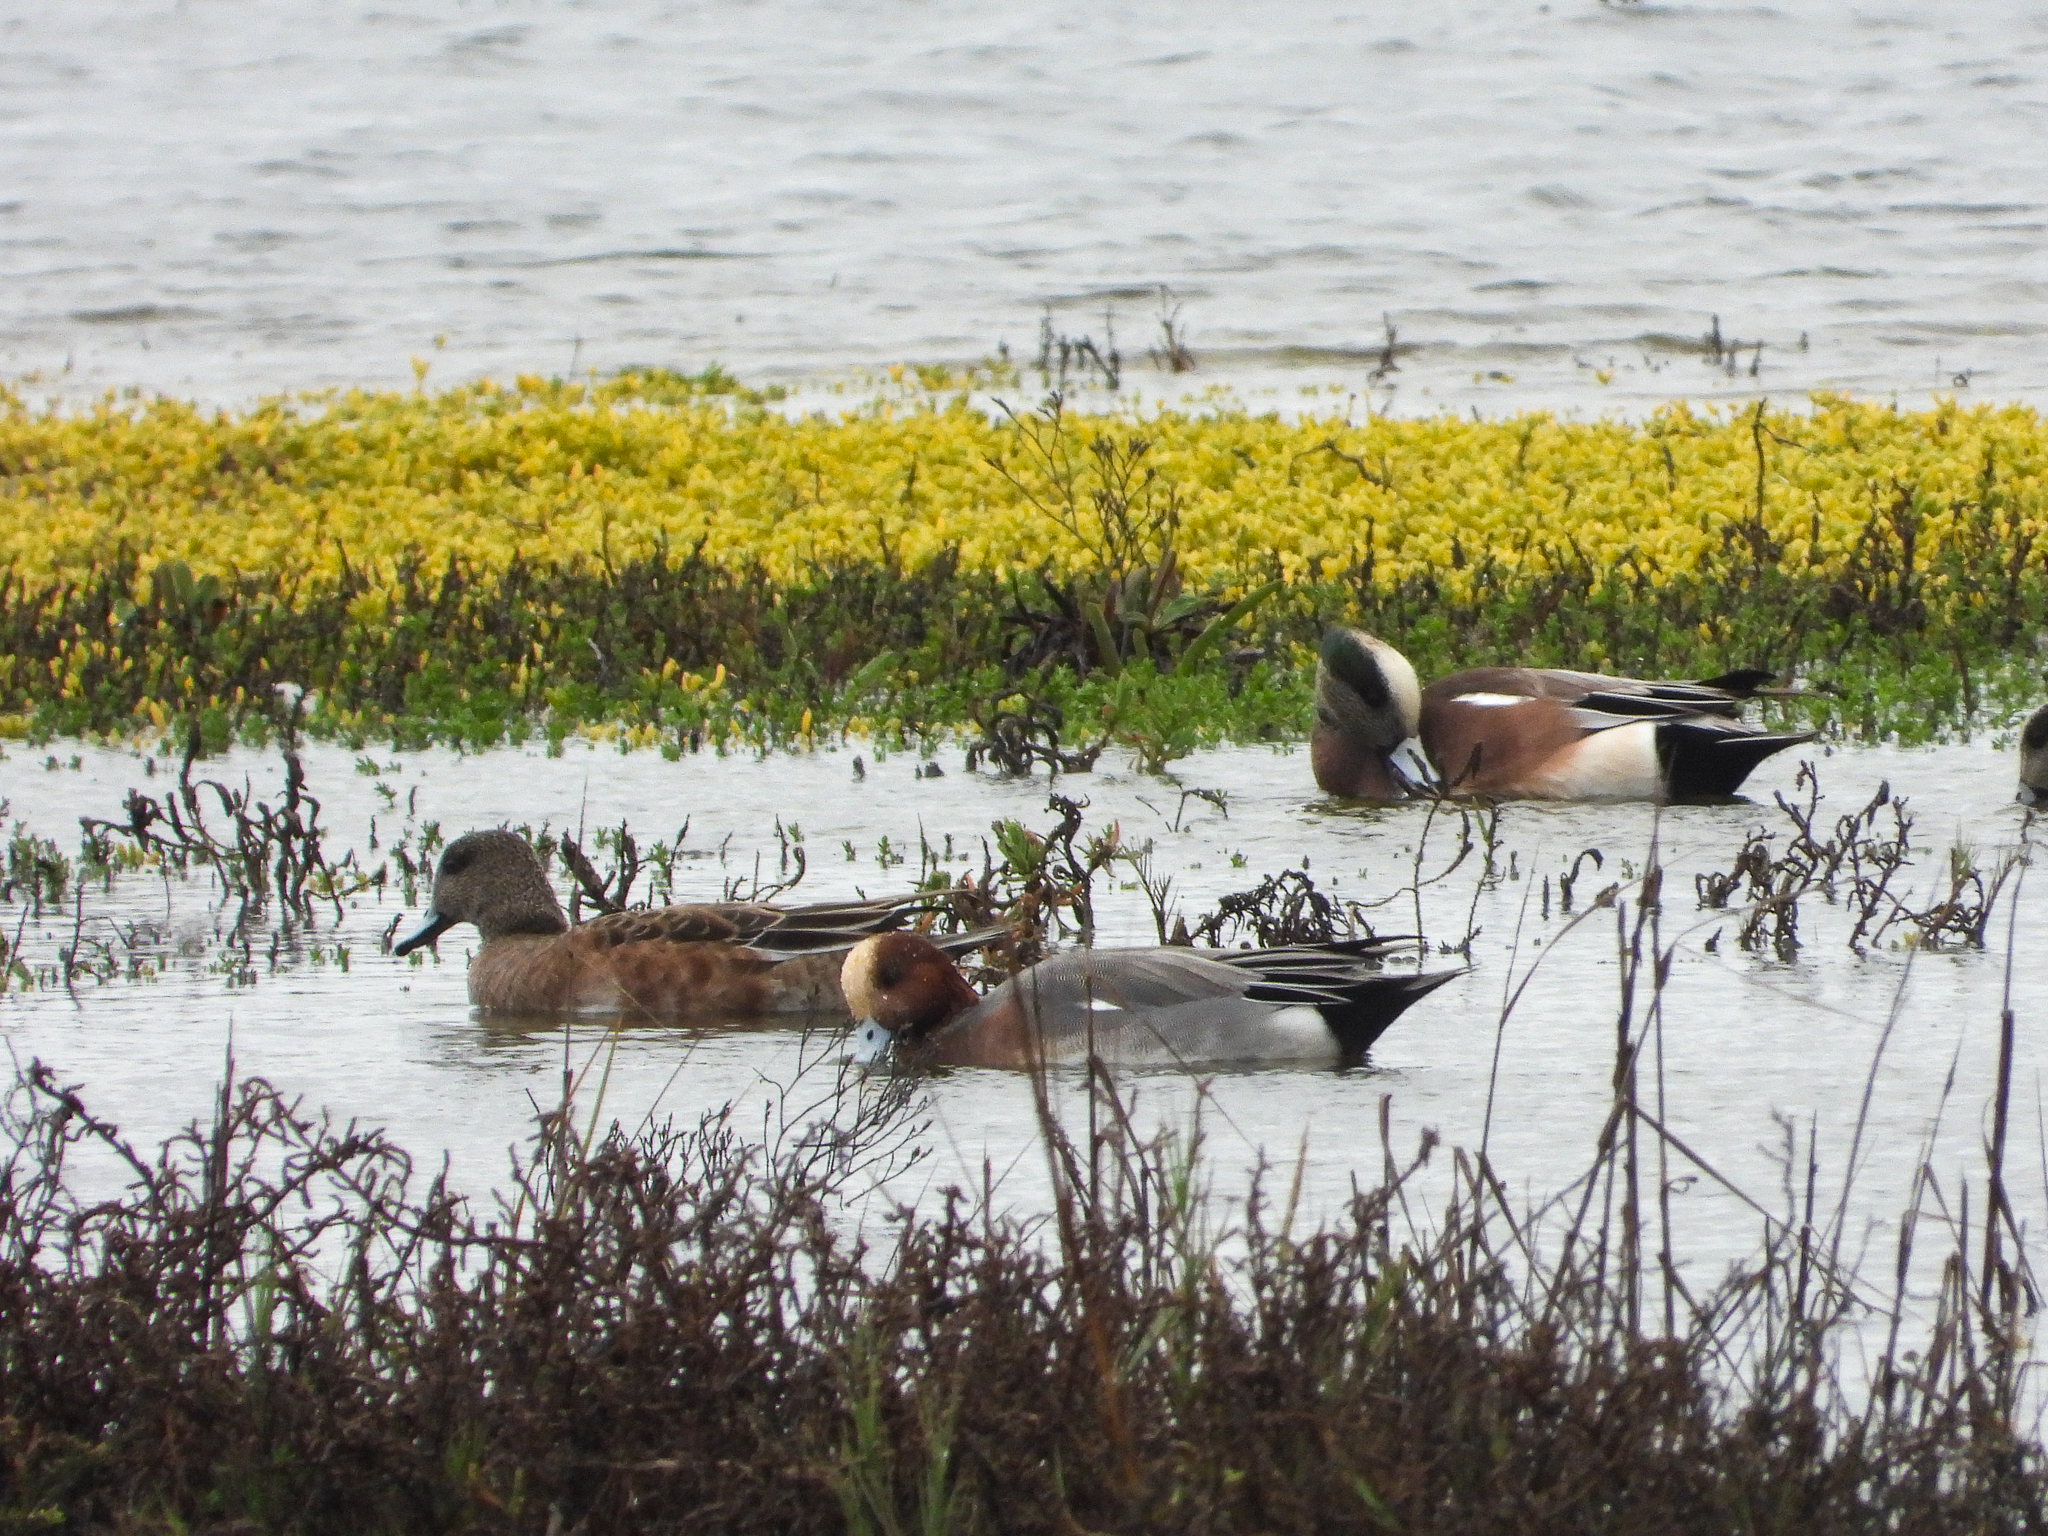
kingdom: Animalia
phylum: Chordata
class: Aves
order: Anseriformes
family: Anatidae
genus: Mareca
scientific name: Mareca penelope
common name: Eurasian wigeon
